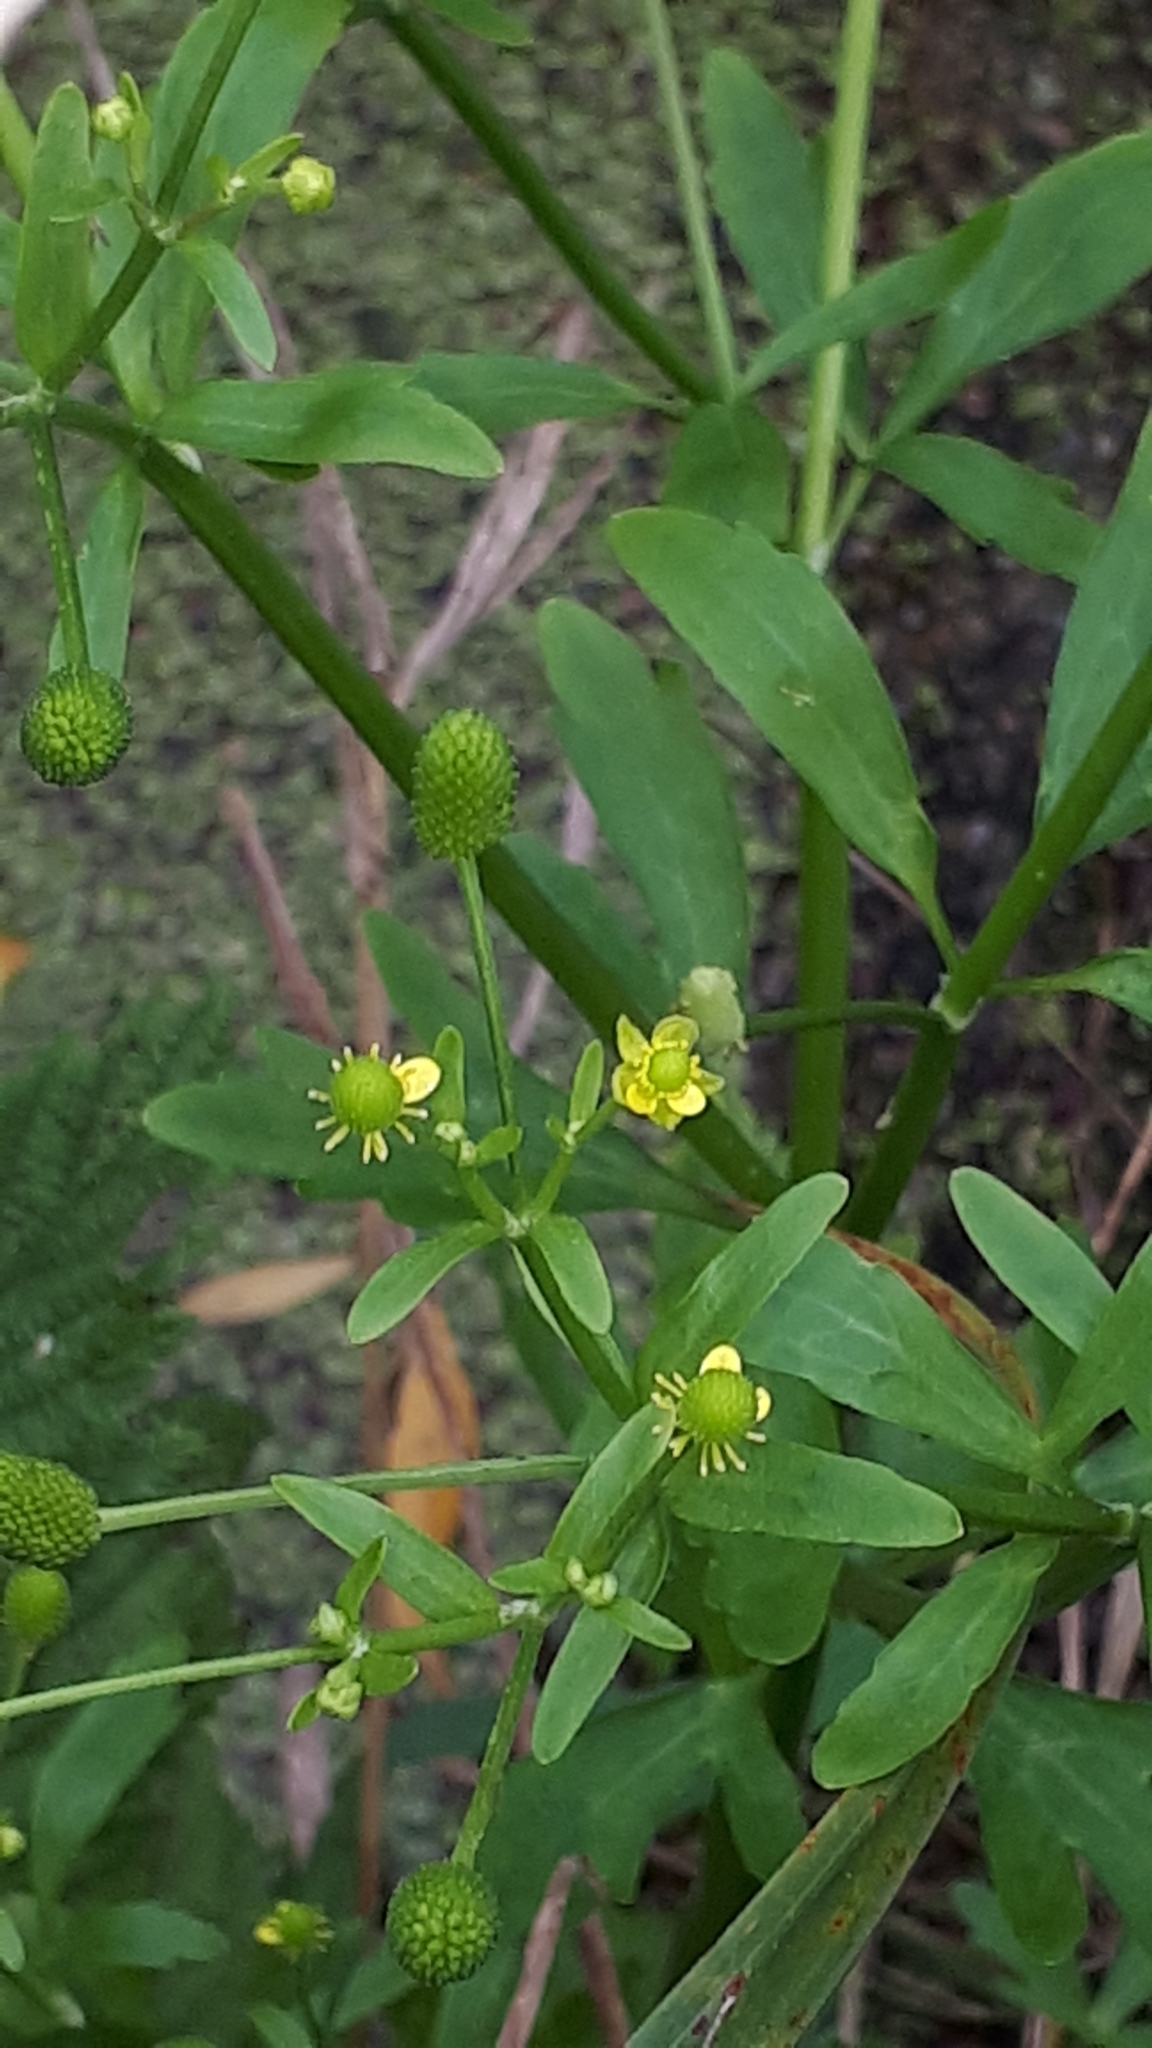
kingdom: Plantae
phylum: Tracheophyta
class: Magnoliopsida
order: Ranunculales
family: Ranunculaceae
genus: Ranunculus
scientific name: Ranunculus sceleratus
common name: Celery-leaved buttercup
